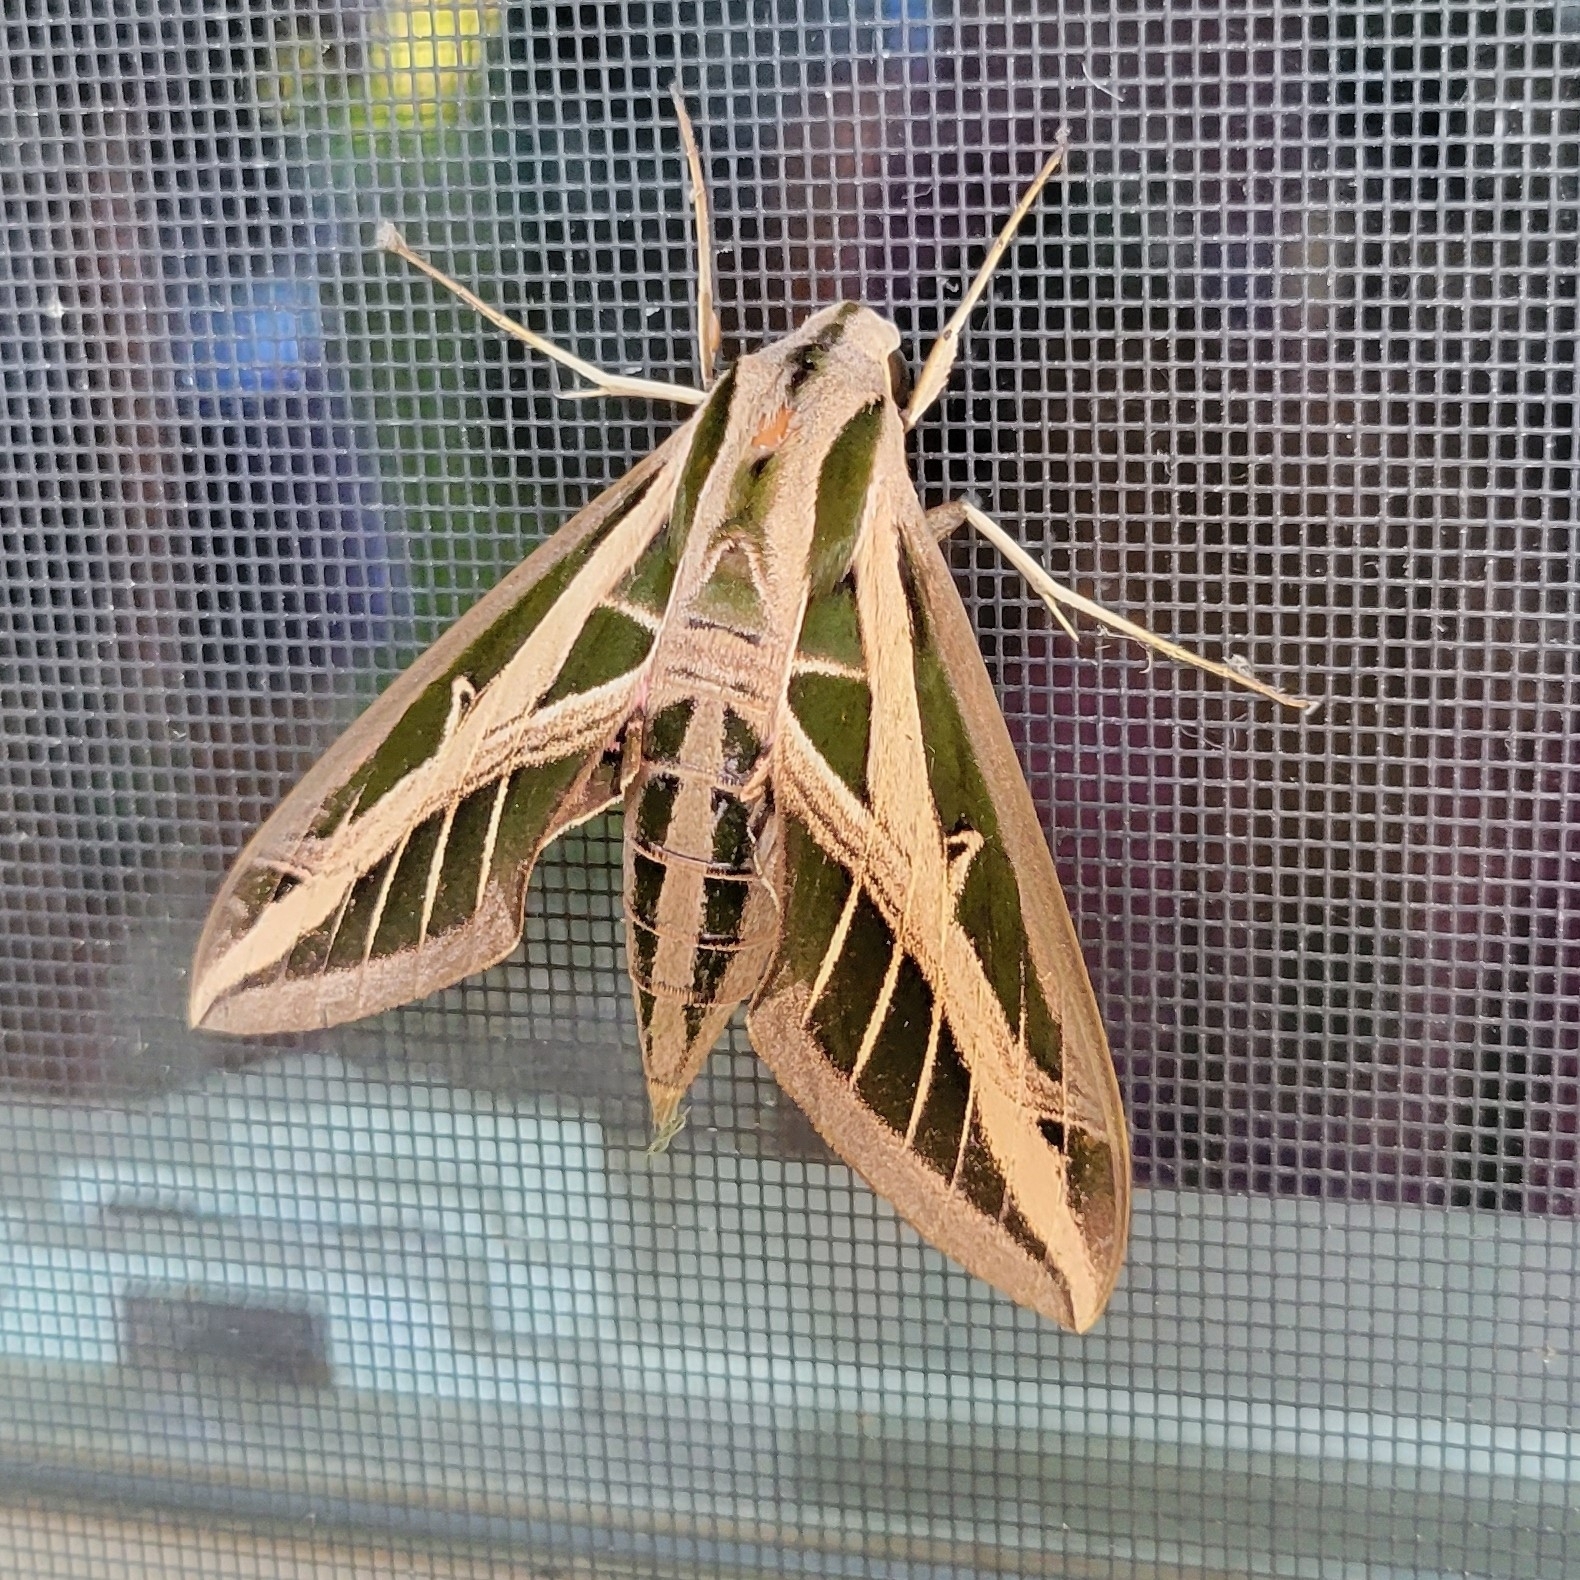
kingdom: Animalia
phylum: Arthropoda
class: Insecta
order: Lepidoptera
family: Sphingidae
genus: Eumorpha
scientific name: Eumorpha fasciatus
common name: Banded sphinx
